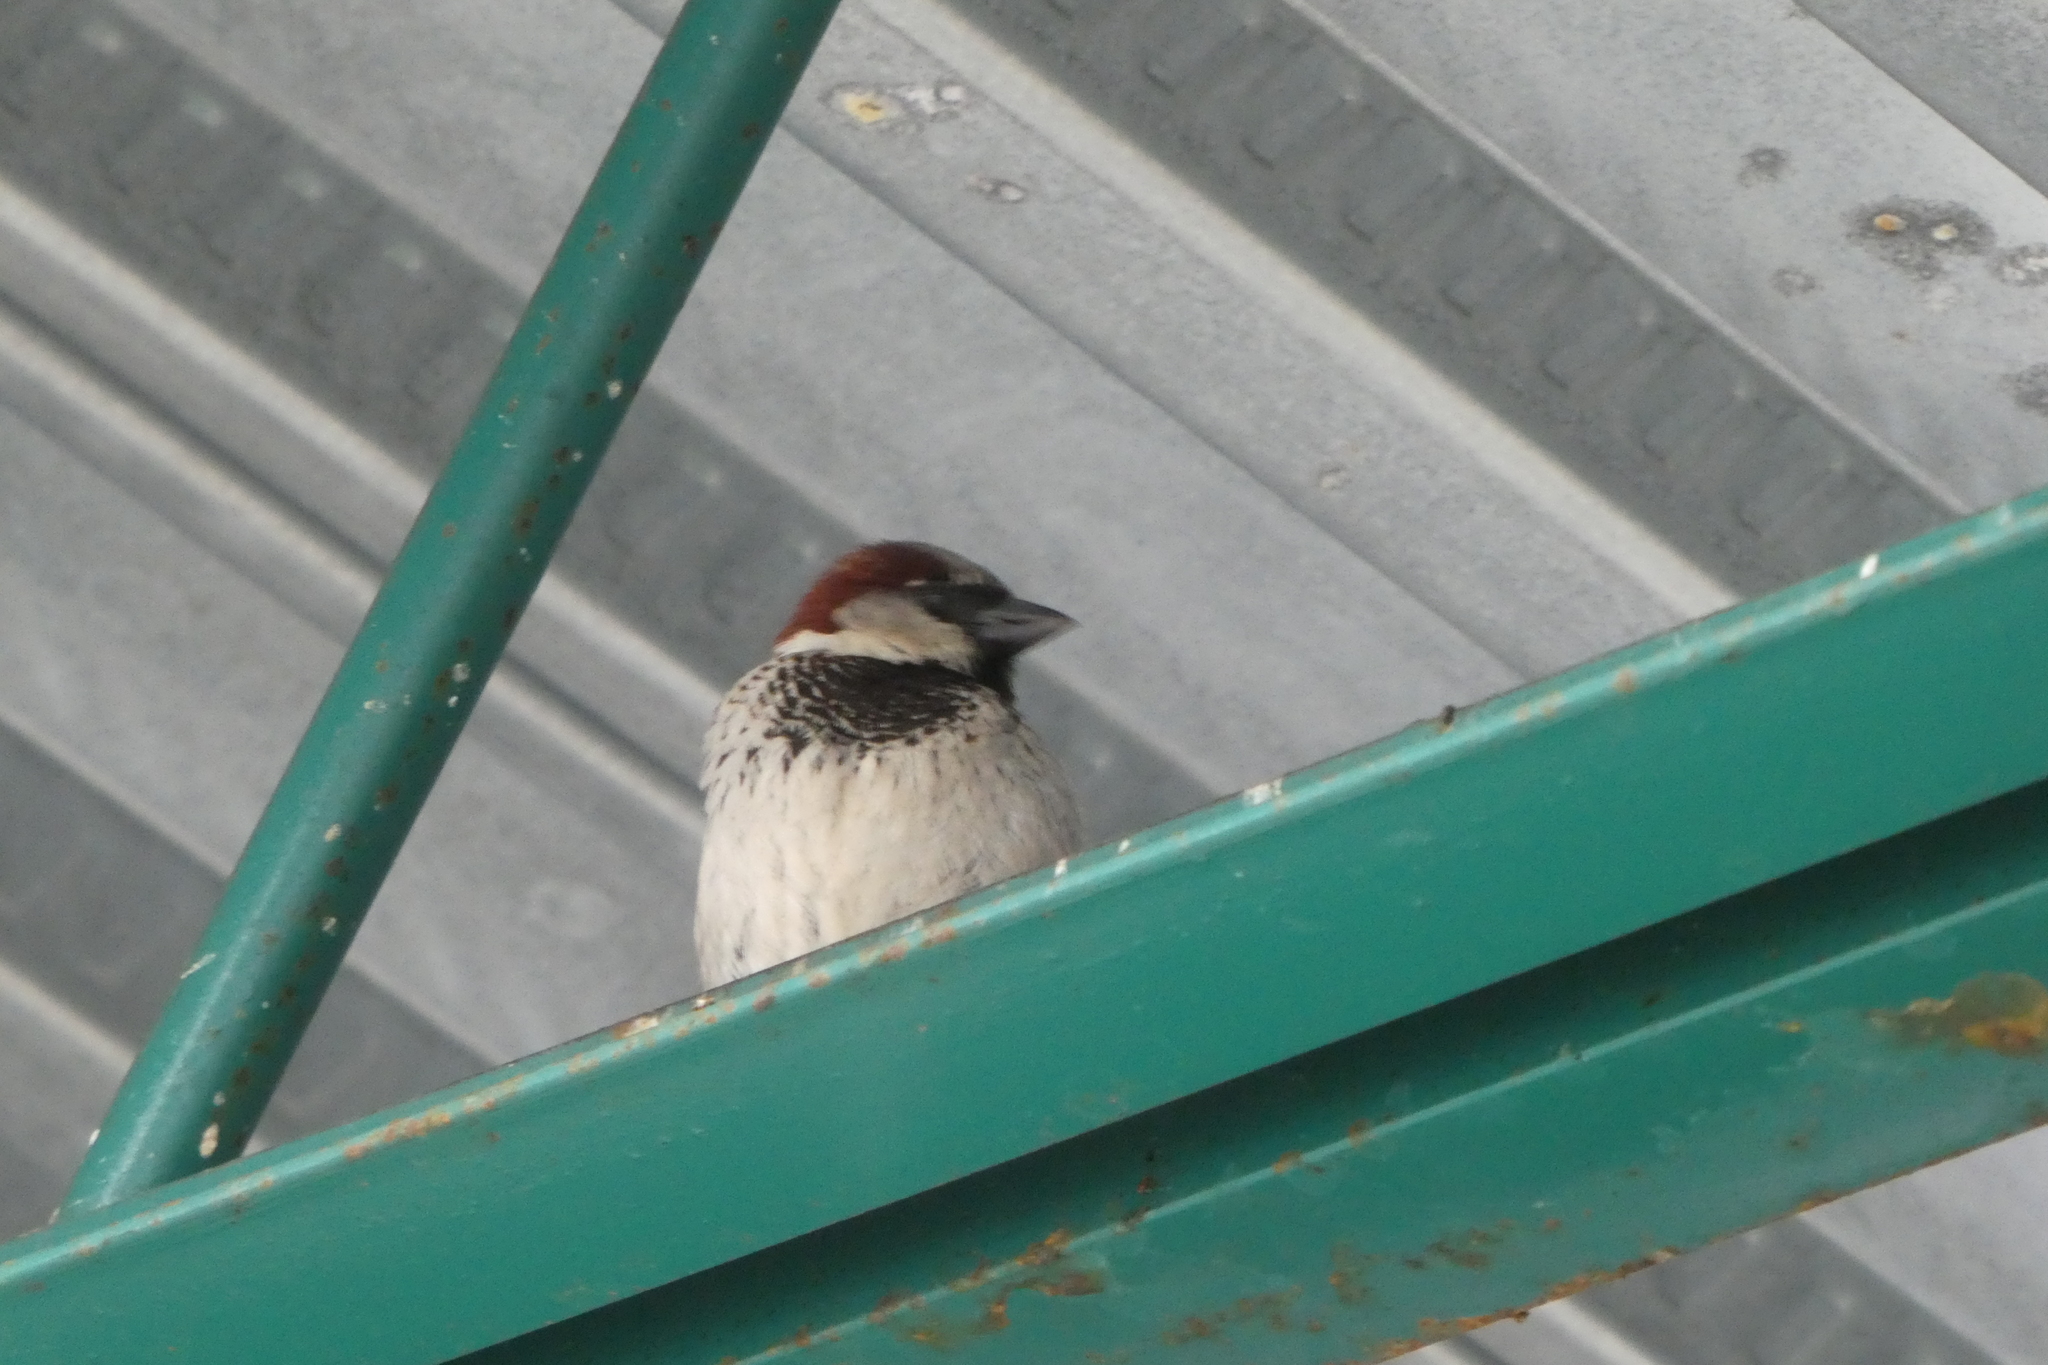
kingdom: Animalia
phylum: Chordata
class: Aves
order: Passeriformes
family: Passeridae
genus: Passer
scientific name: Passer domesticus
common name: House sparrow
